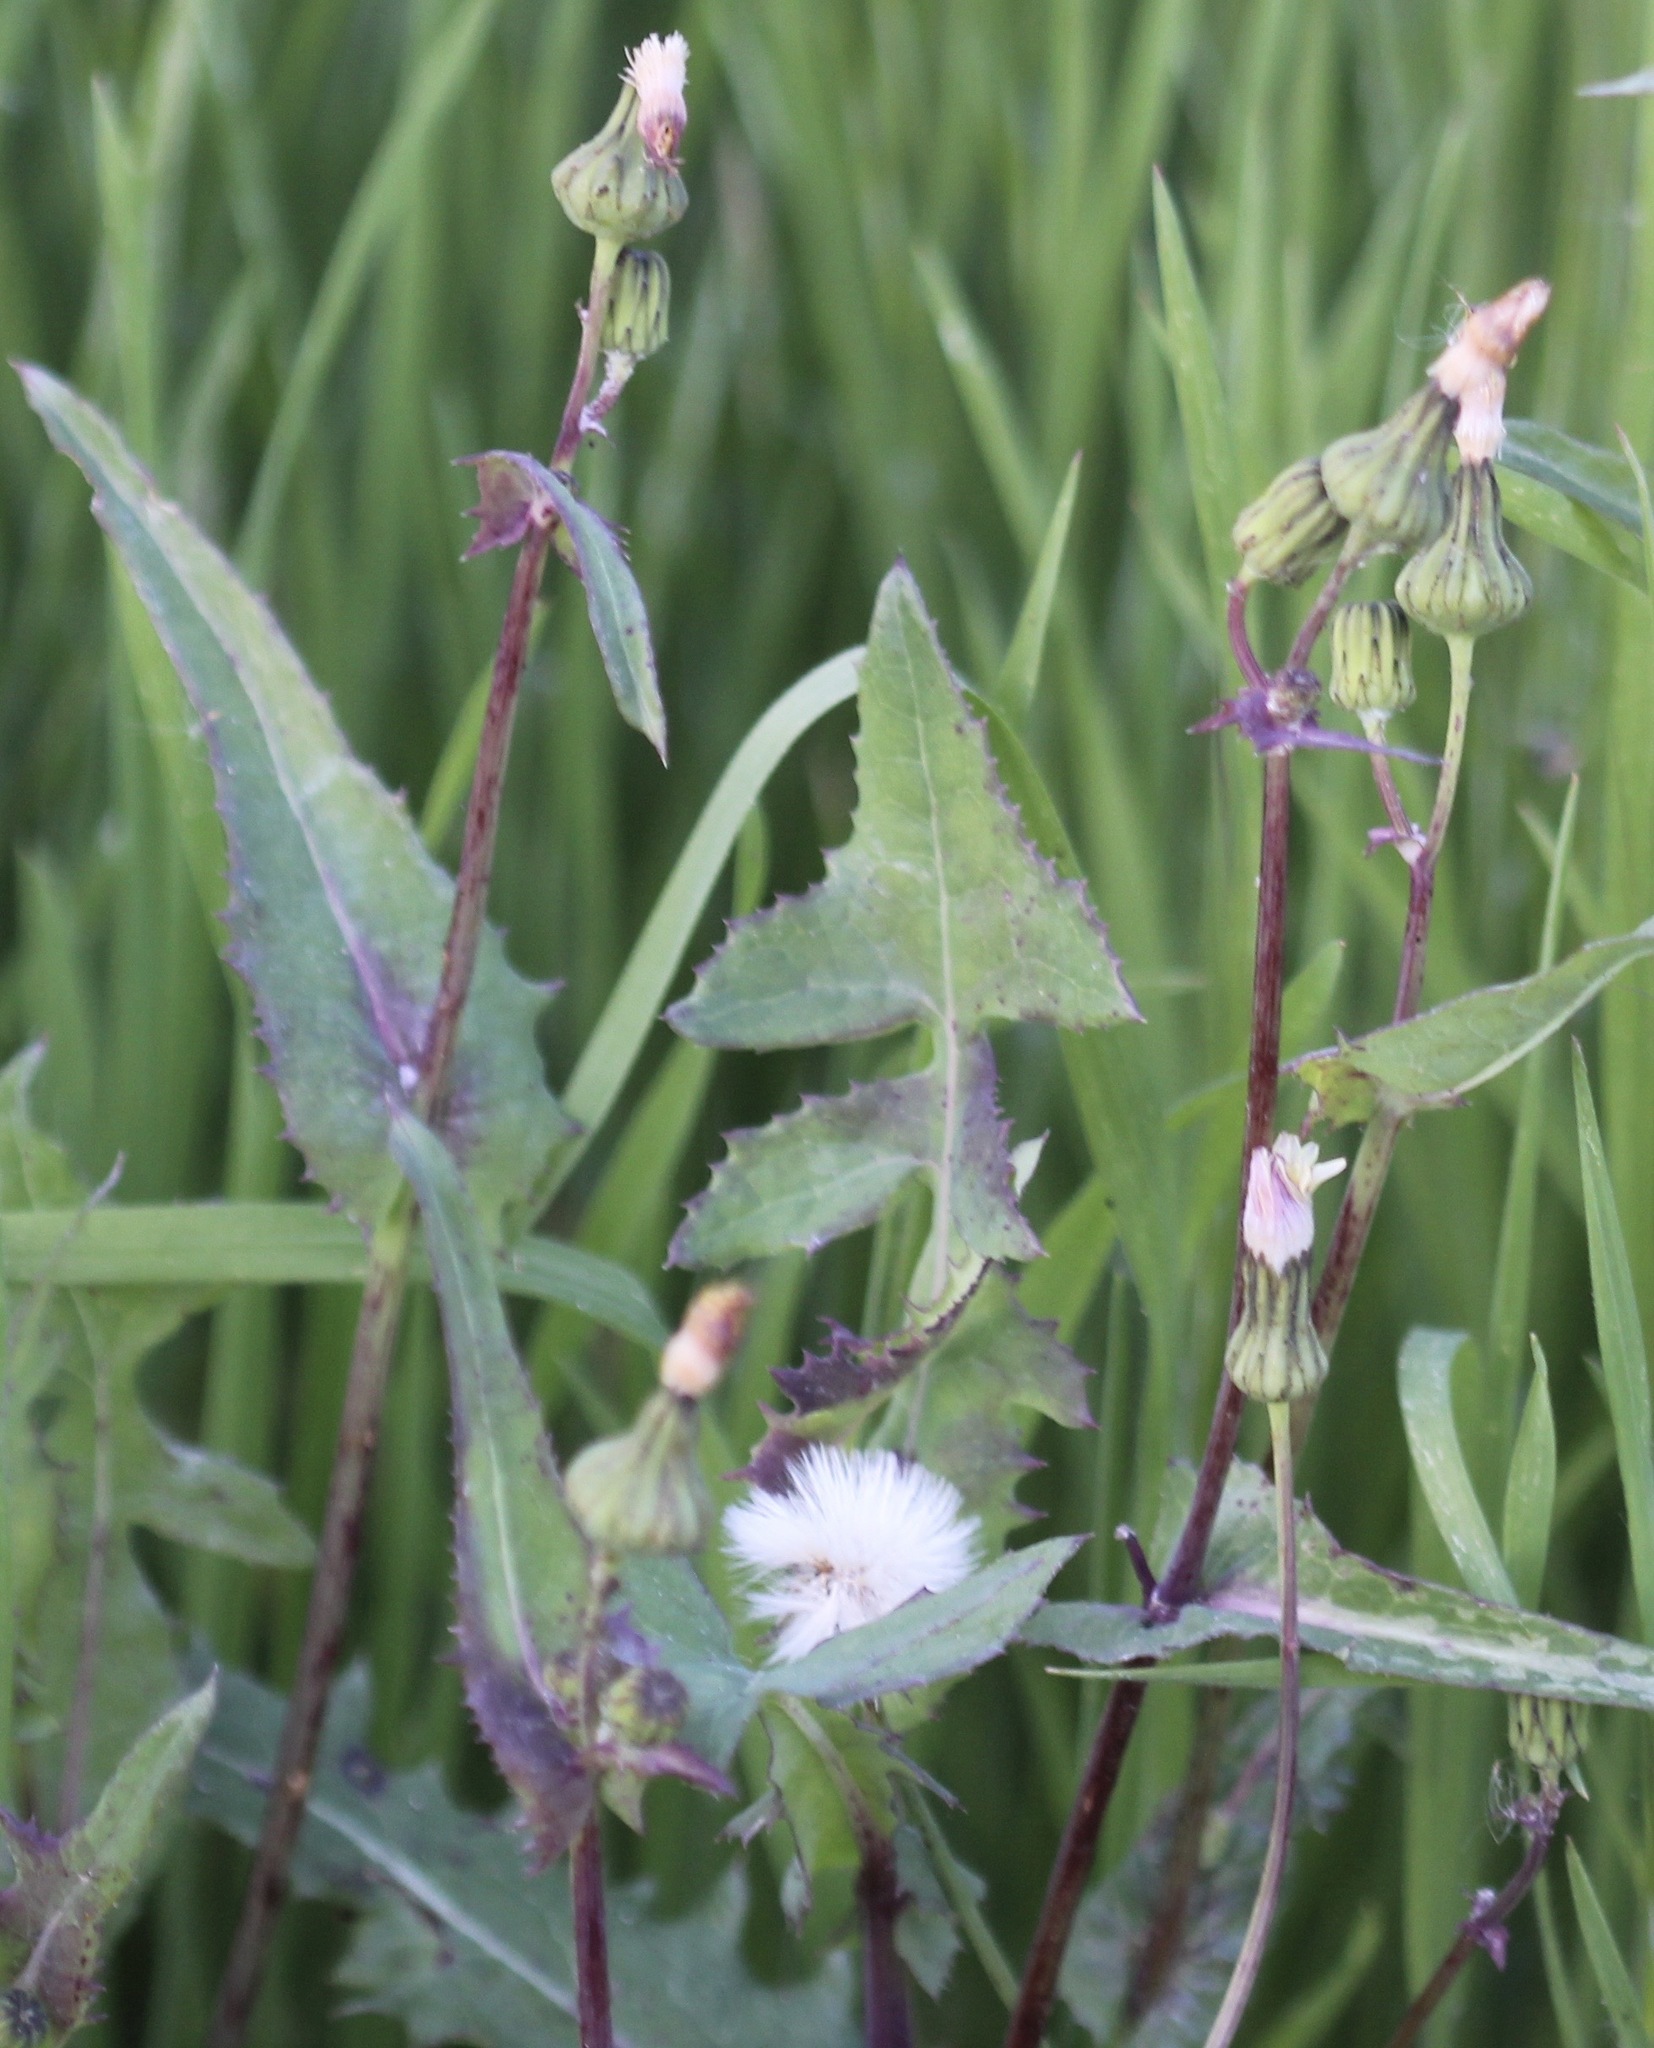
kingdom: Plantae
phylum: Tracheophyta
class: Magnoliopsida
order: Asterales
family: Asteraceae
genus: Sonchus
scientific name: Sonchus oleraceus
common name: Common sowthistle
